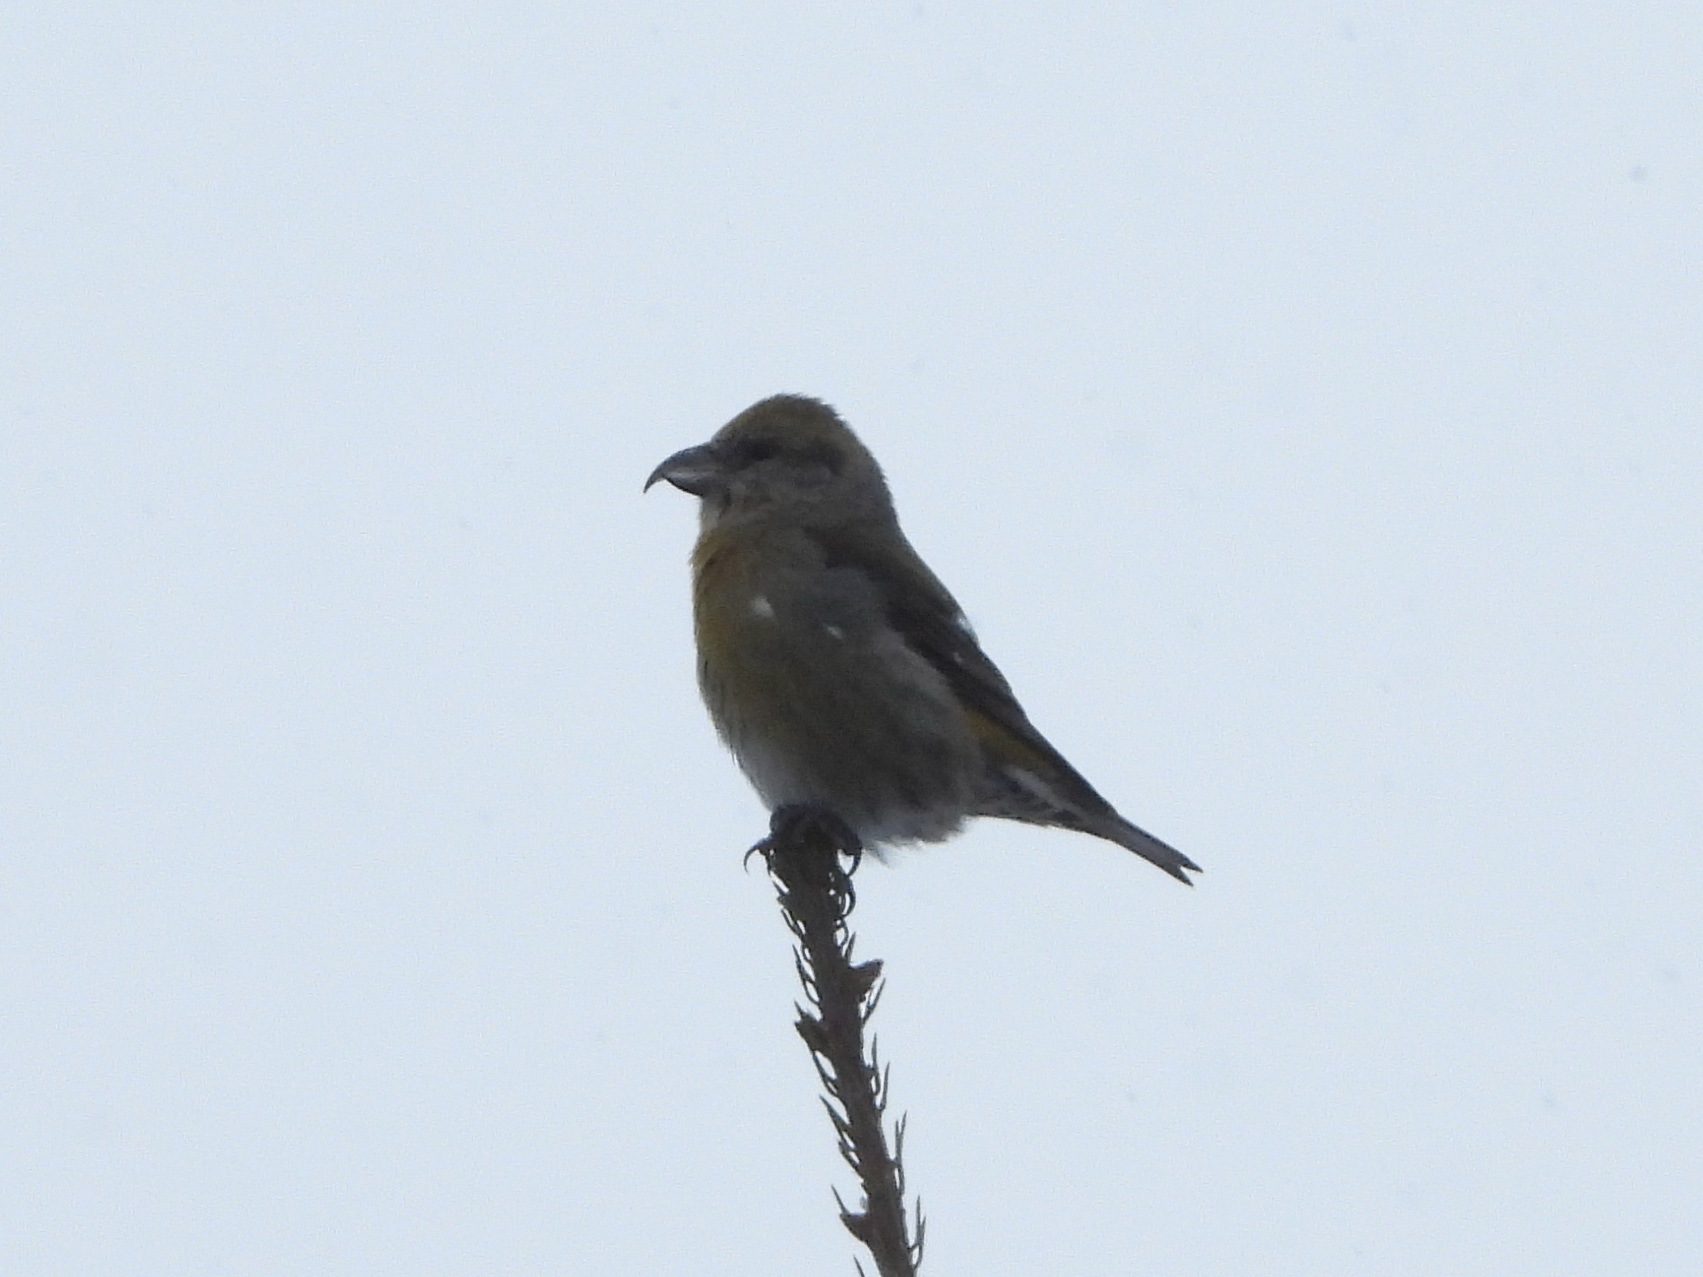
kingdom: Animalia
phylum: Chordata
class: Aves
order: Passeriformes
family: Fringillidae
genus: Loxia
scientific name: Loxia curvirostra
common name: Red crossbill
